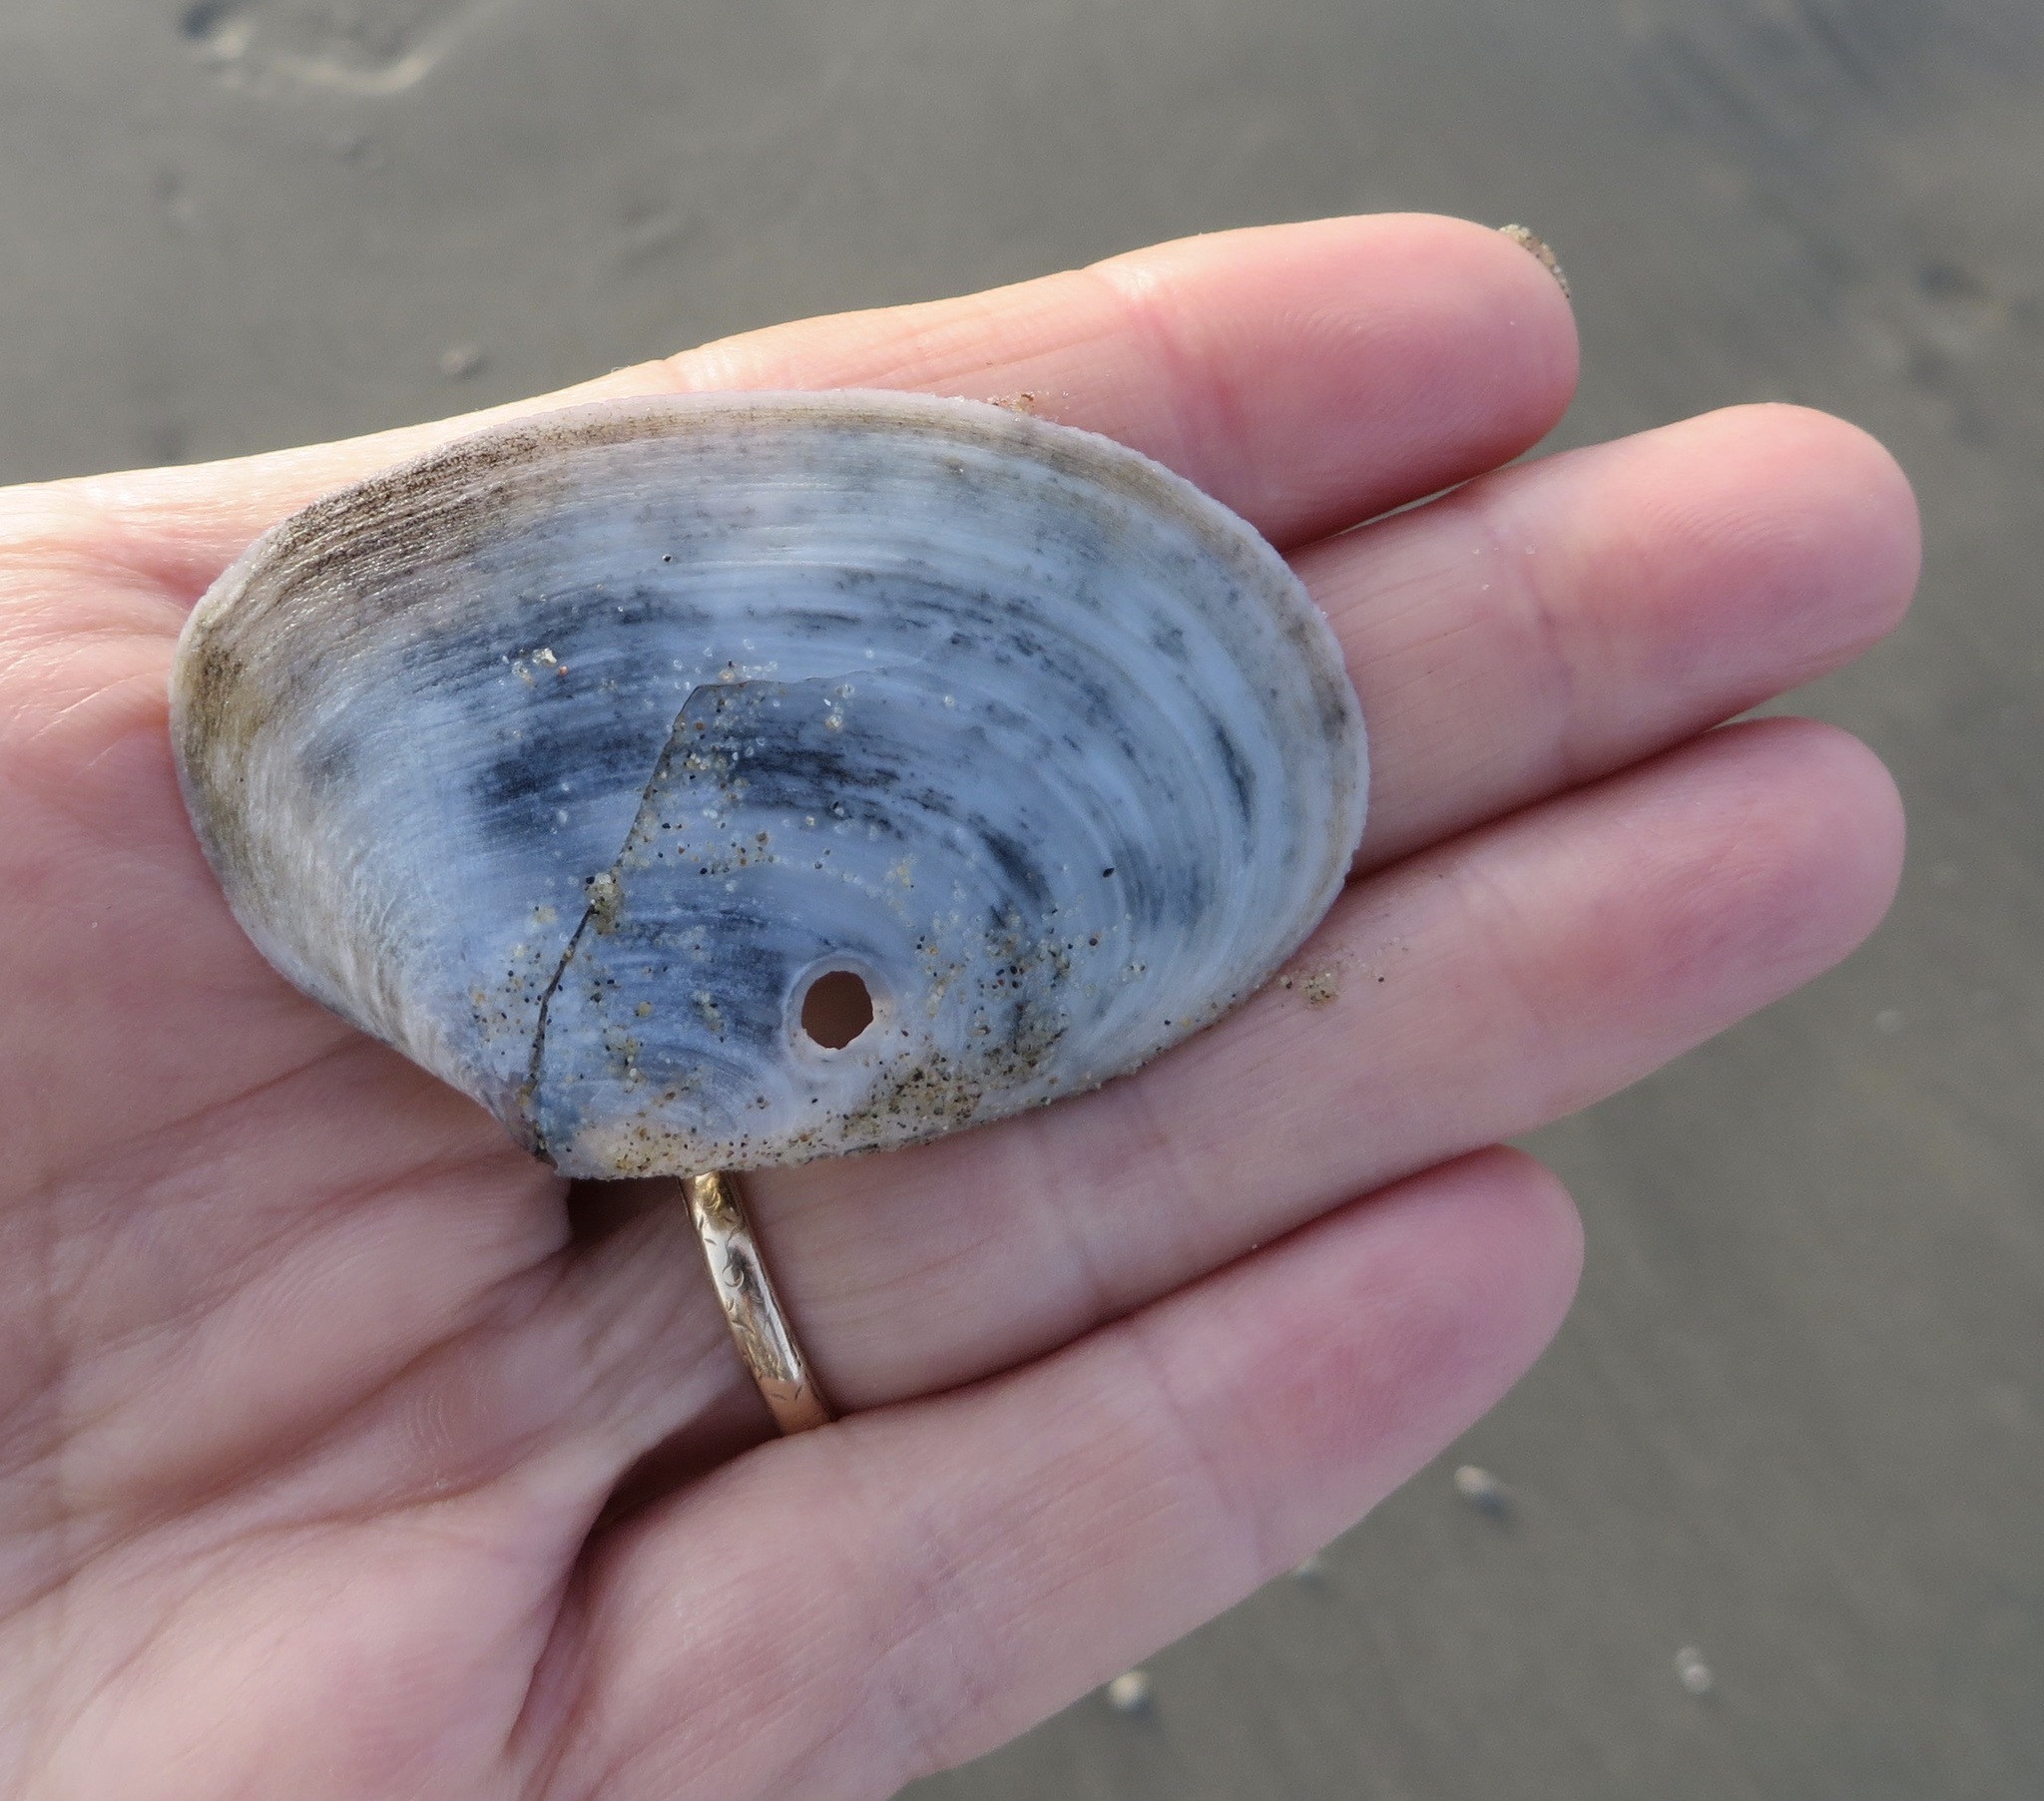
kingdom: Animalia
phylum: Mollusca
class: Bivalvia
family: Periplomatidae
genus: Periploma
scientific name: Periploma planiusculum
